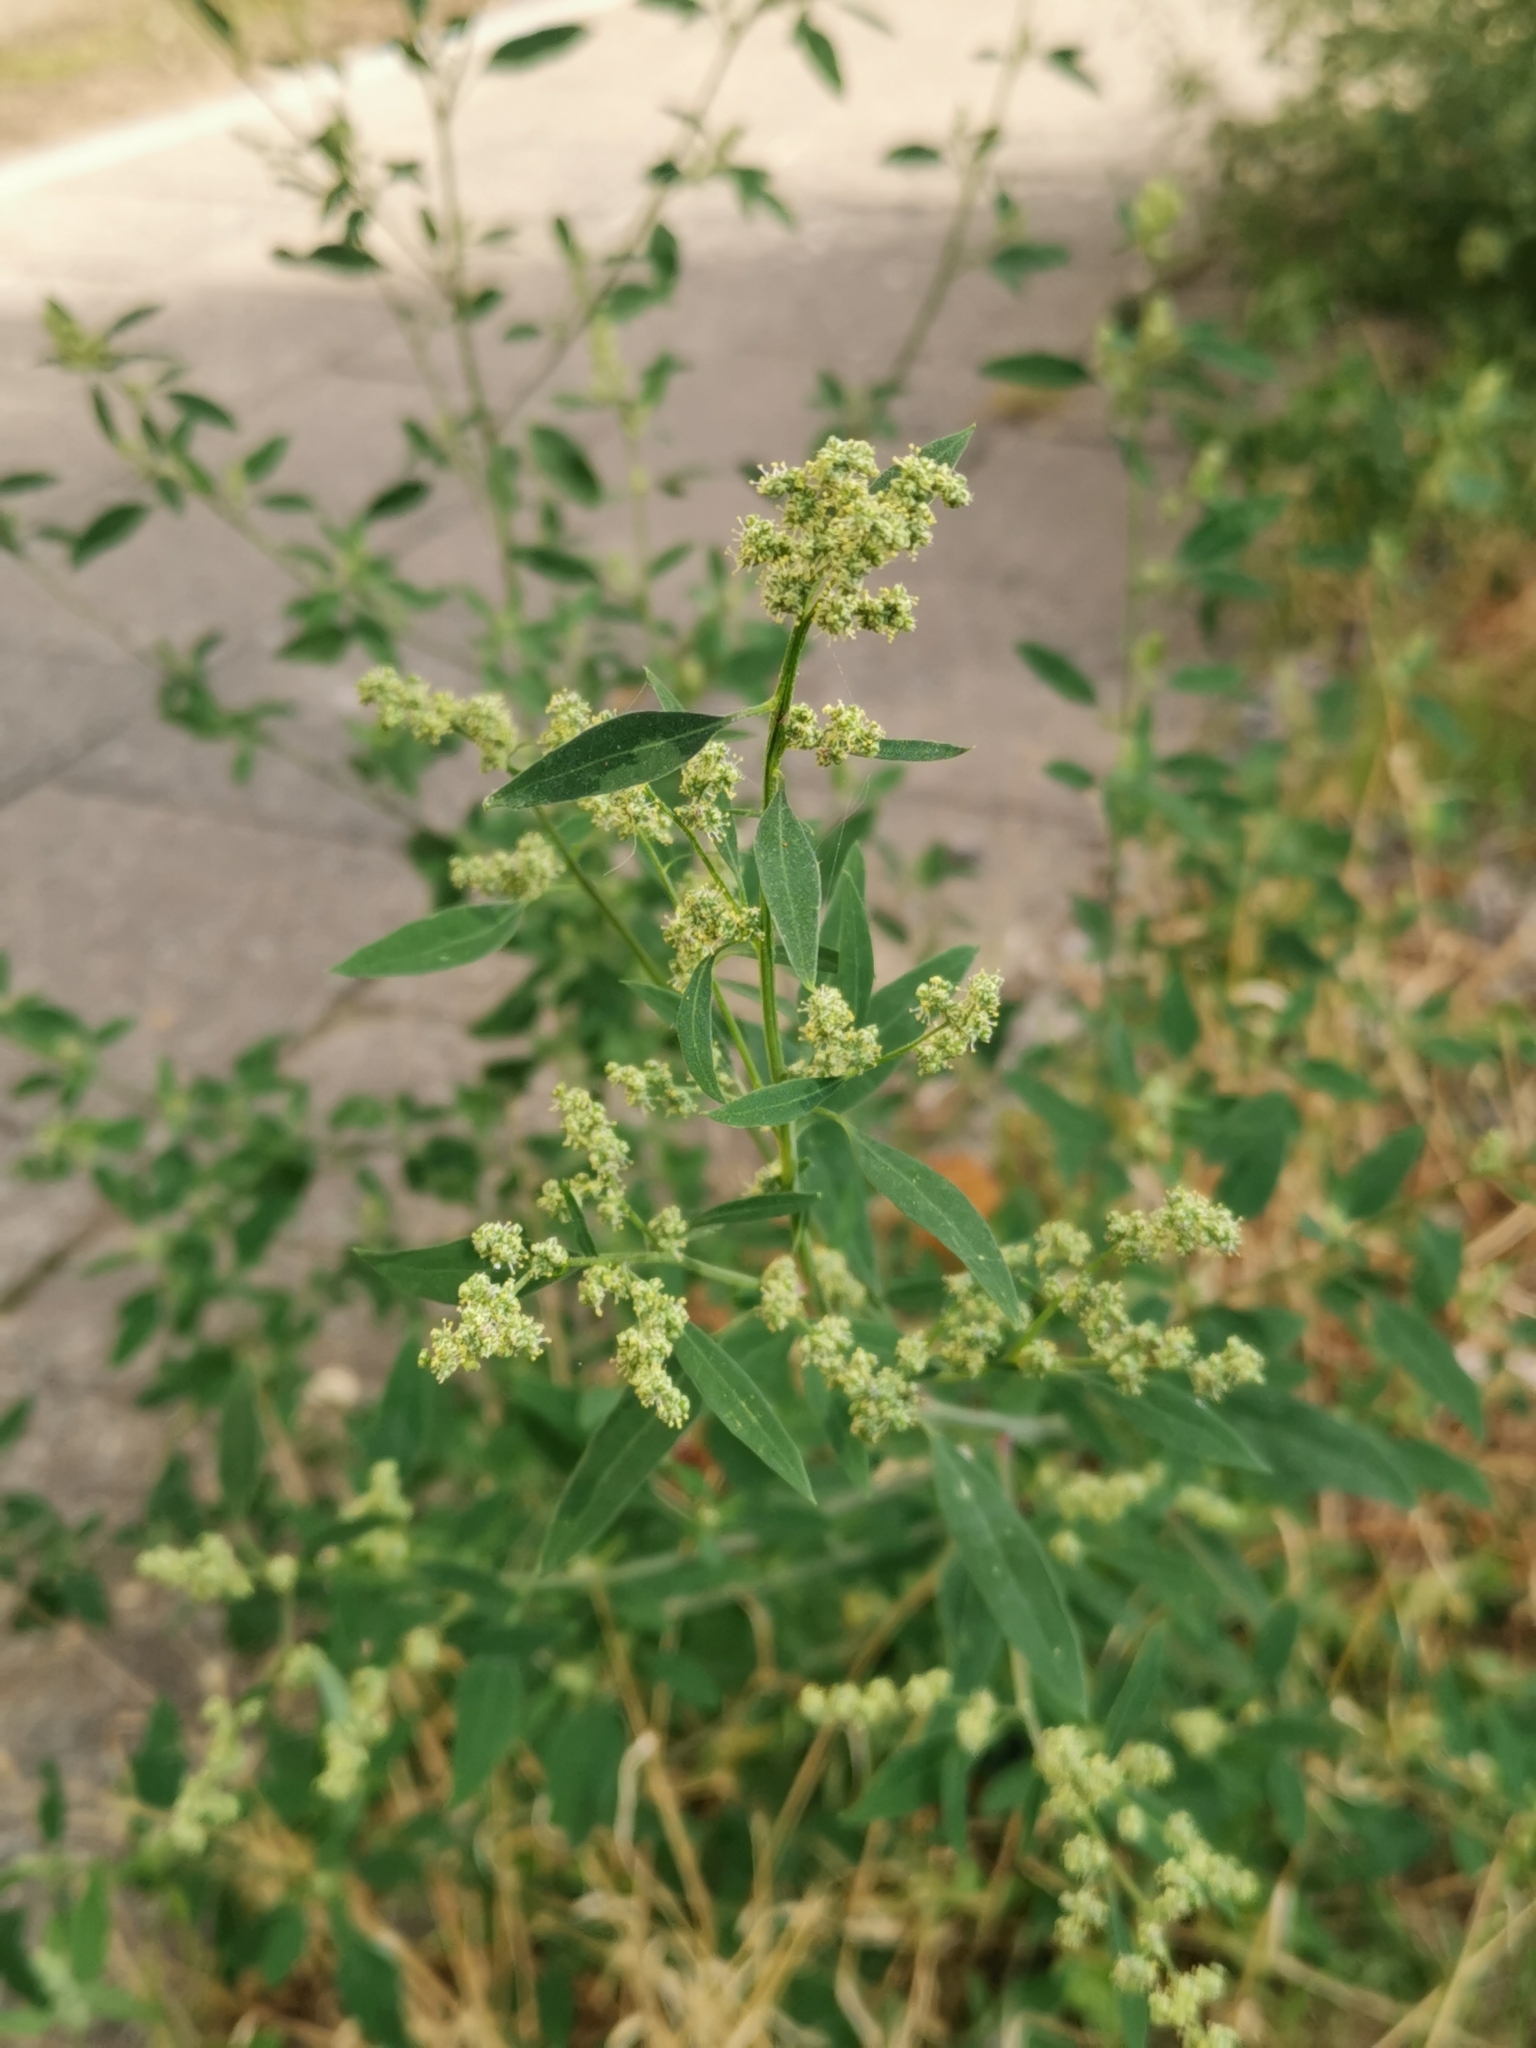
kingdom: Plantae
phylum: Tracheophyta
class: Magnoliopsida
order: Caryophyllales
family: Amaranthaceae
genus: Chenopodium
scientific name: Chenopodium betaceum
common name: Striped goosefoot
